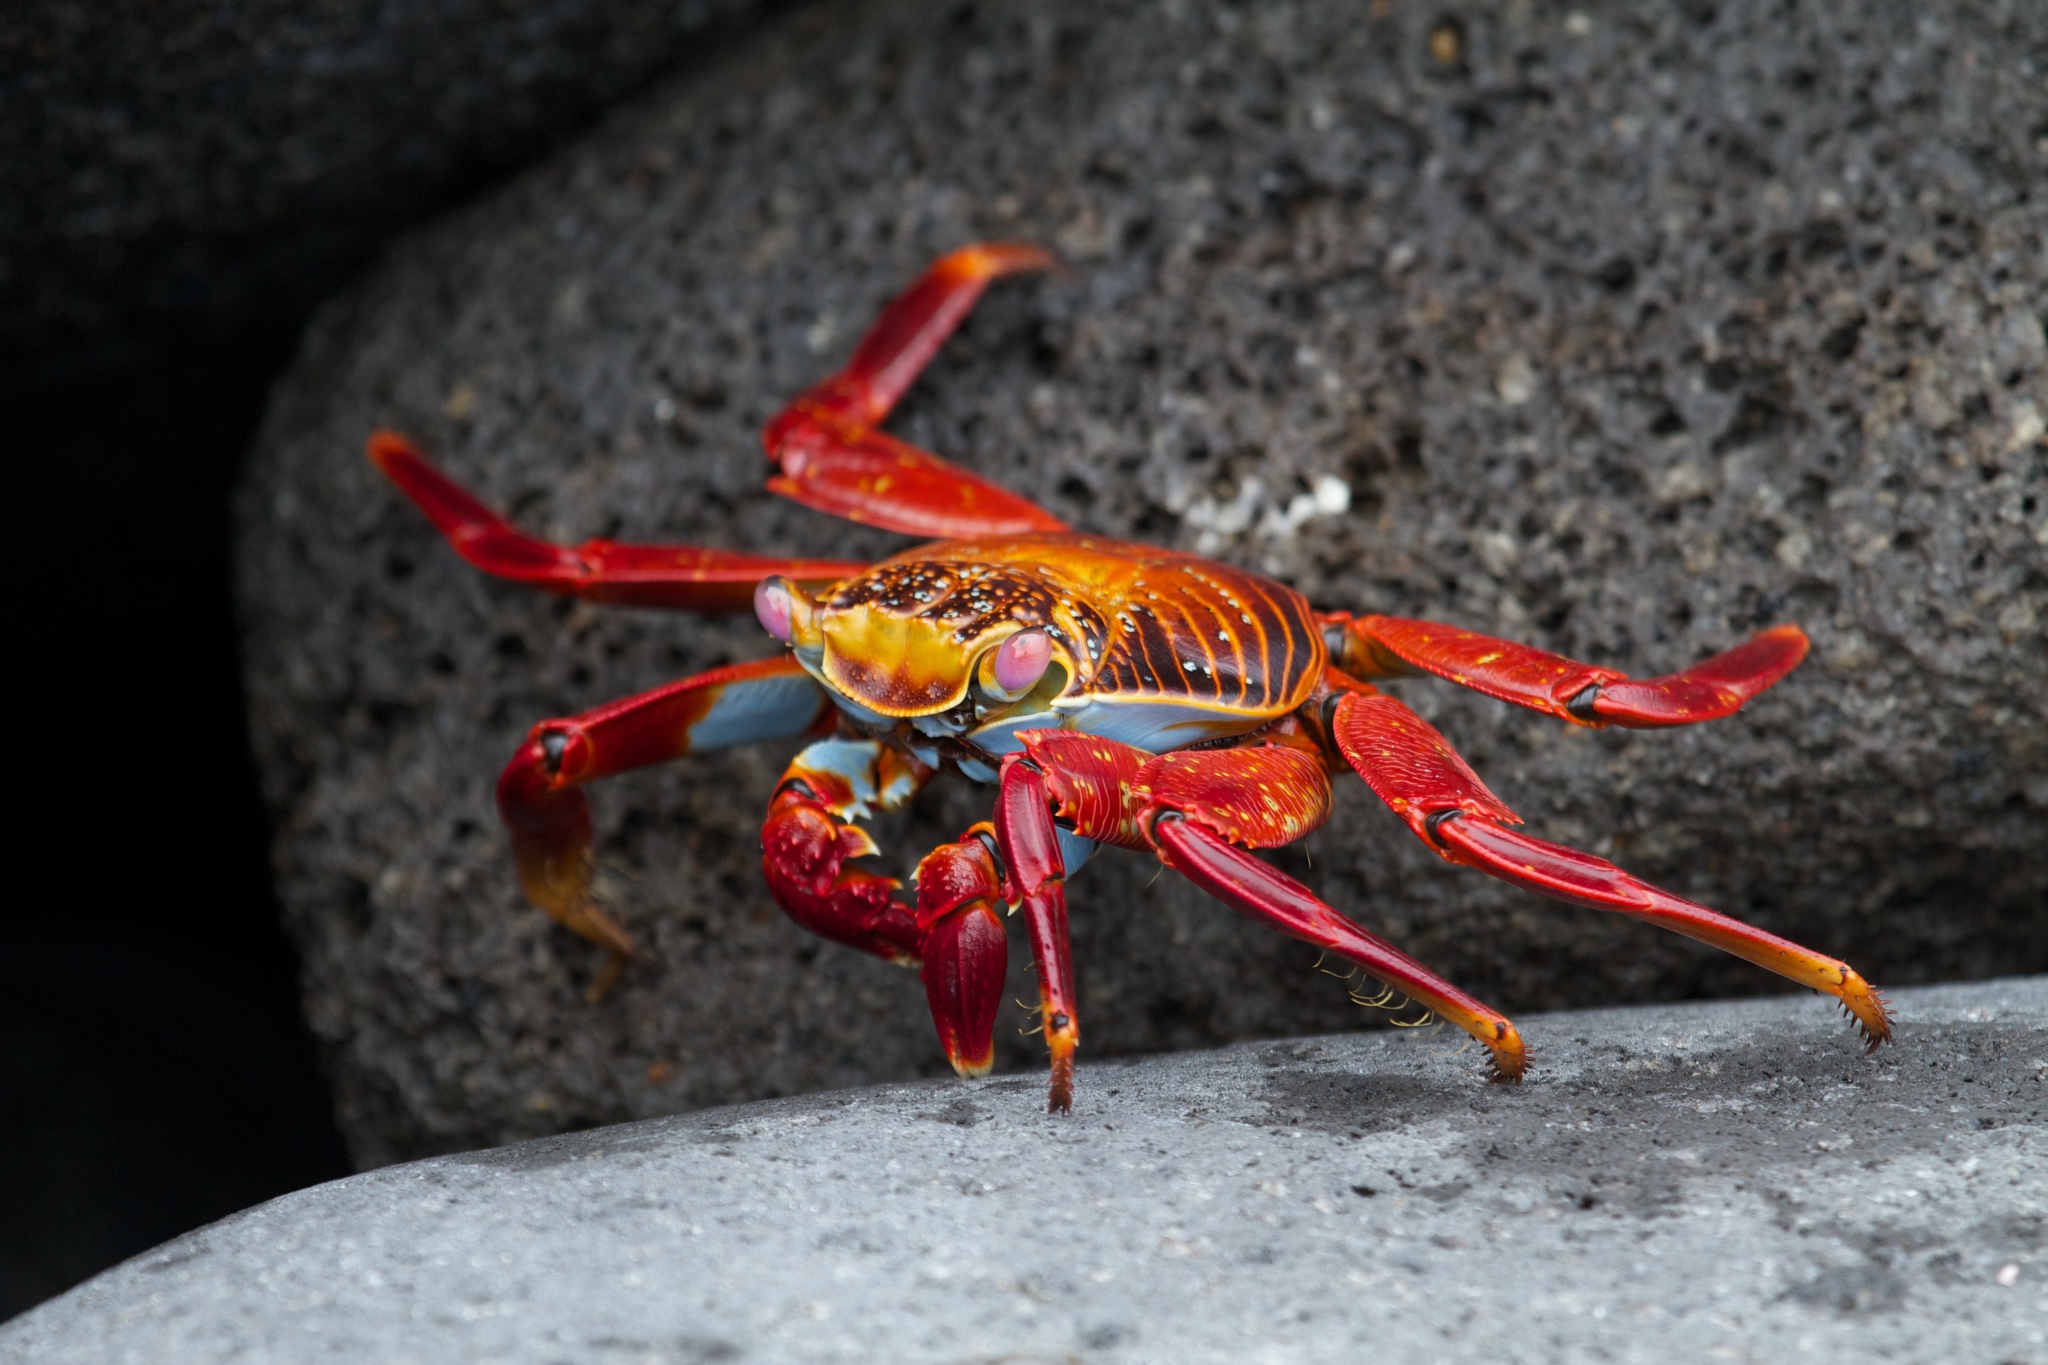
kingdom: Animalia
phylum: Arthropoda
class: Malacostraca
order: Decapoda
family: Grapsidae
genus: Grapsus
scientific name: Grapsus grapsus
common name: Sally lightfoot
